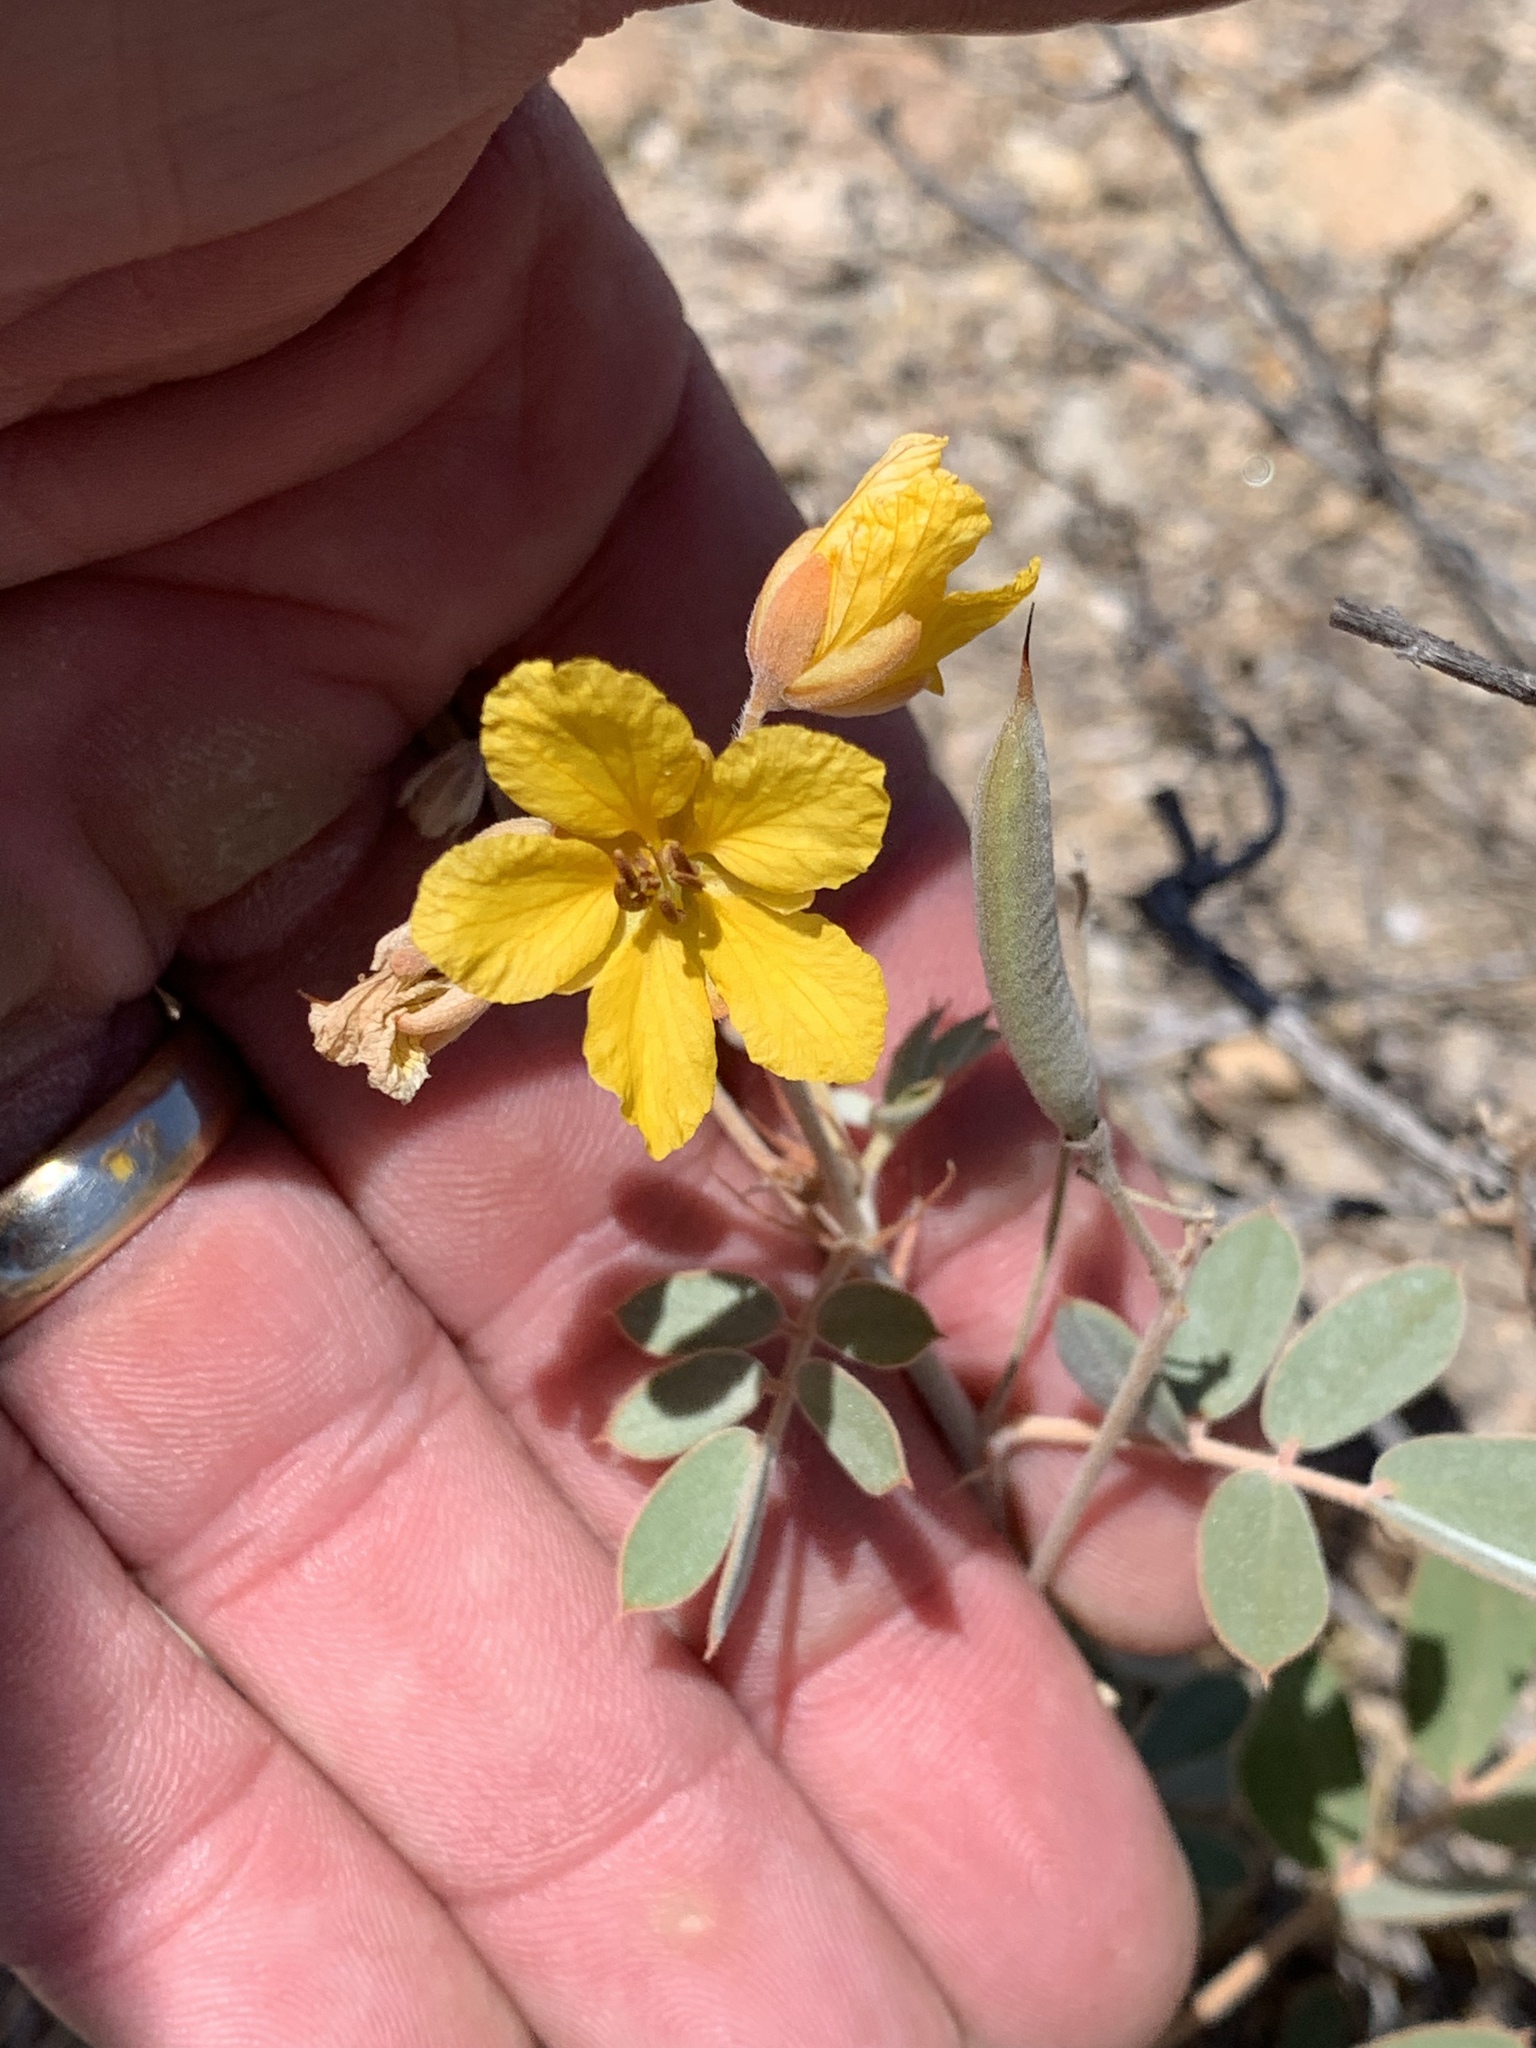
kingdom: Plantae
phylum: Tracheophyta
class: Magnoliopsida
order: Fabales
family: Fabaceae
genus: Senna
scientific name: Senna covesii
